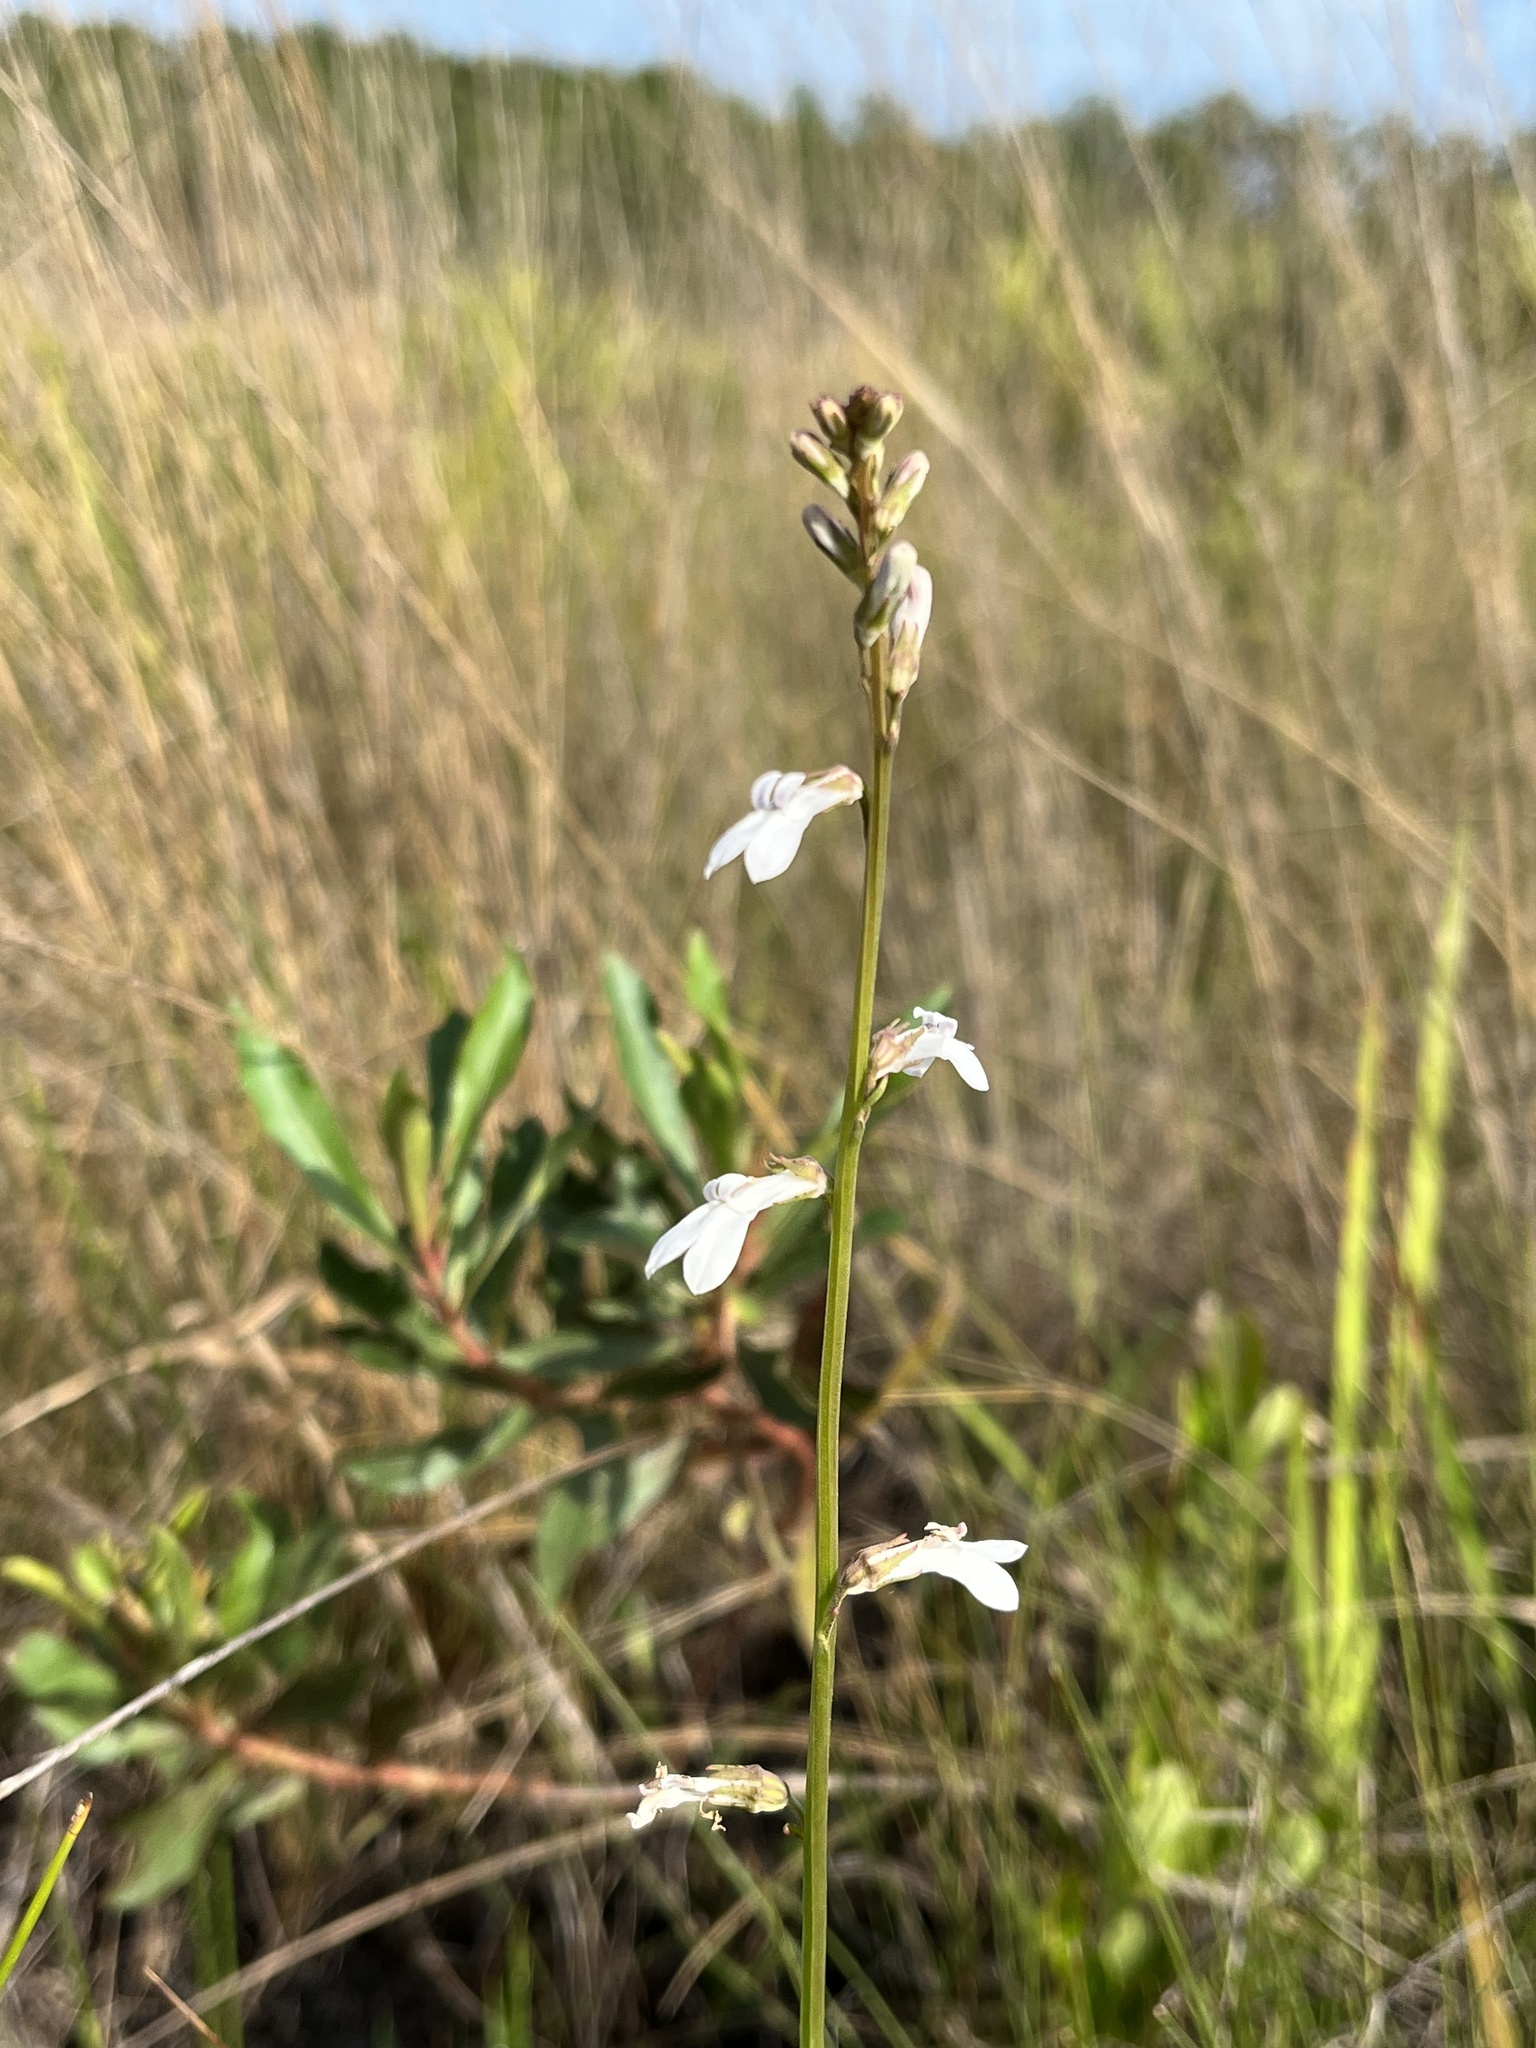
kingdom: Plantae
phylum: Tracheophyta
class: Magnoliopsida
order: Asterales
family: Campanulaceae
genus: Lobelia
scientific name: Lobelia paludosa
